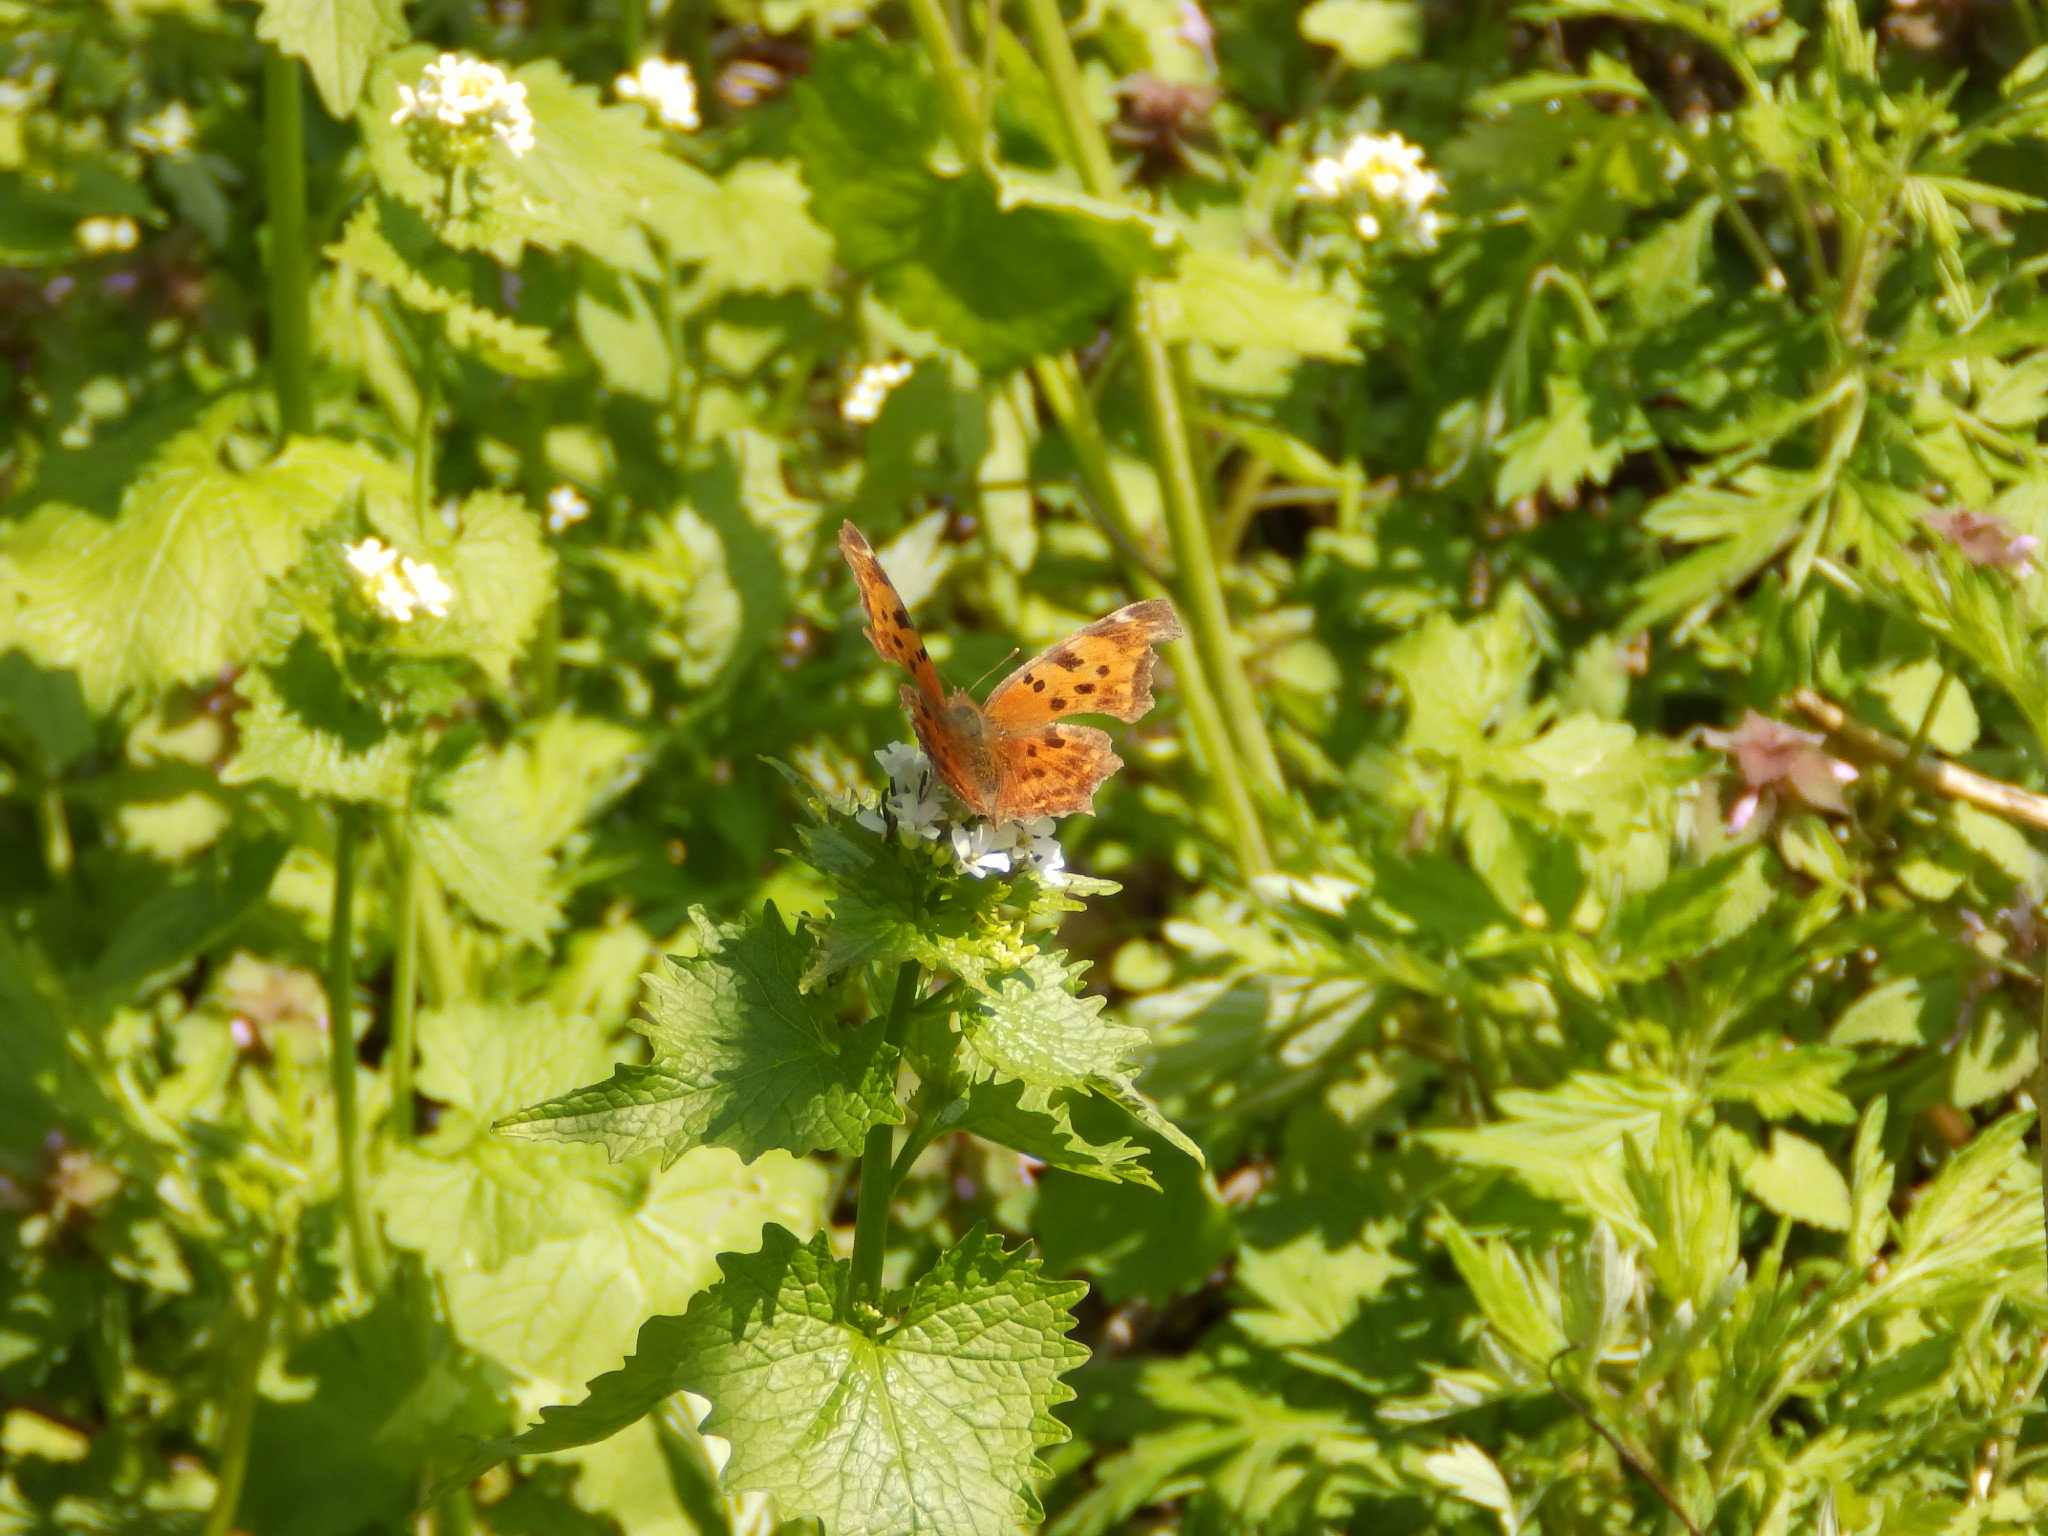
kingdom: Animalia
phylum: Arthropoda
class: Insecta
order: Lepidoptera
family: Nymphalidae
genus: Polygonia
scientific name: Polygonia comma
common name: Eastern comma
